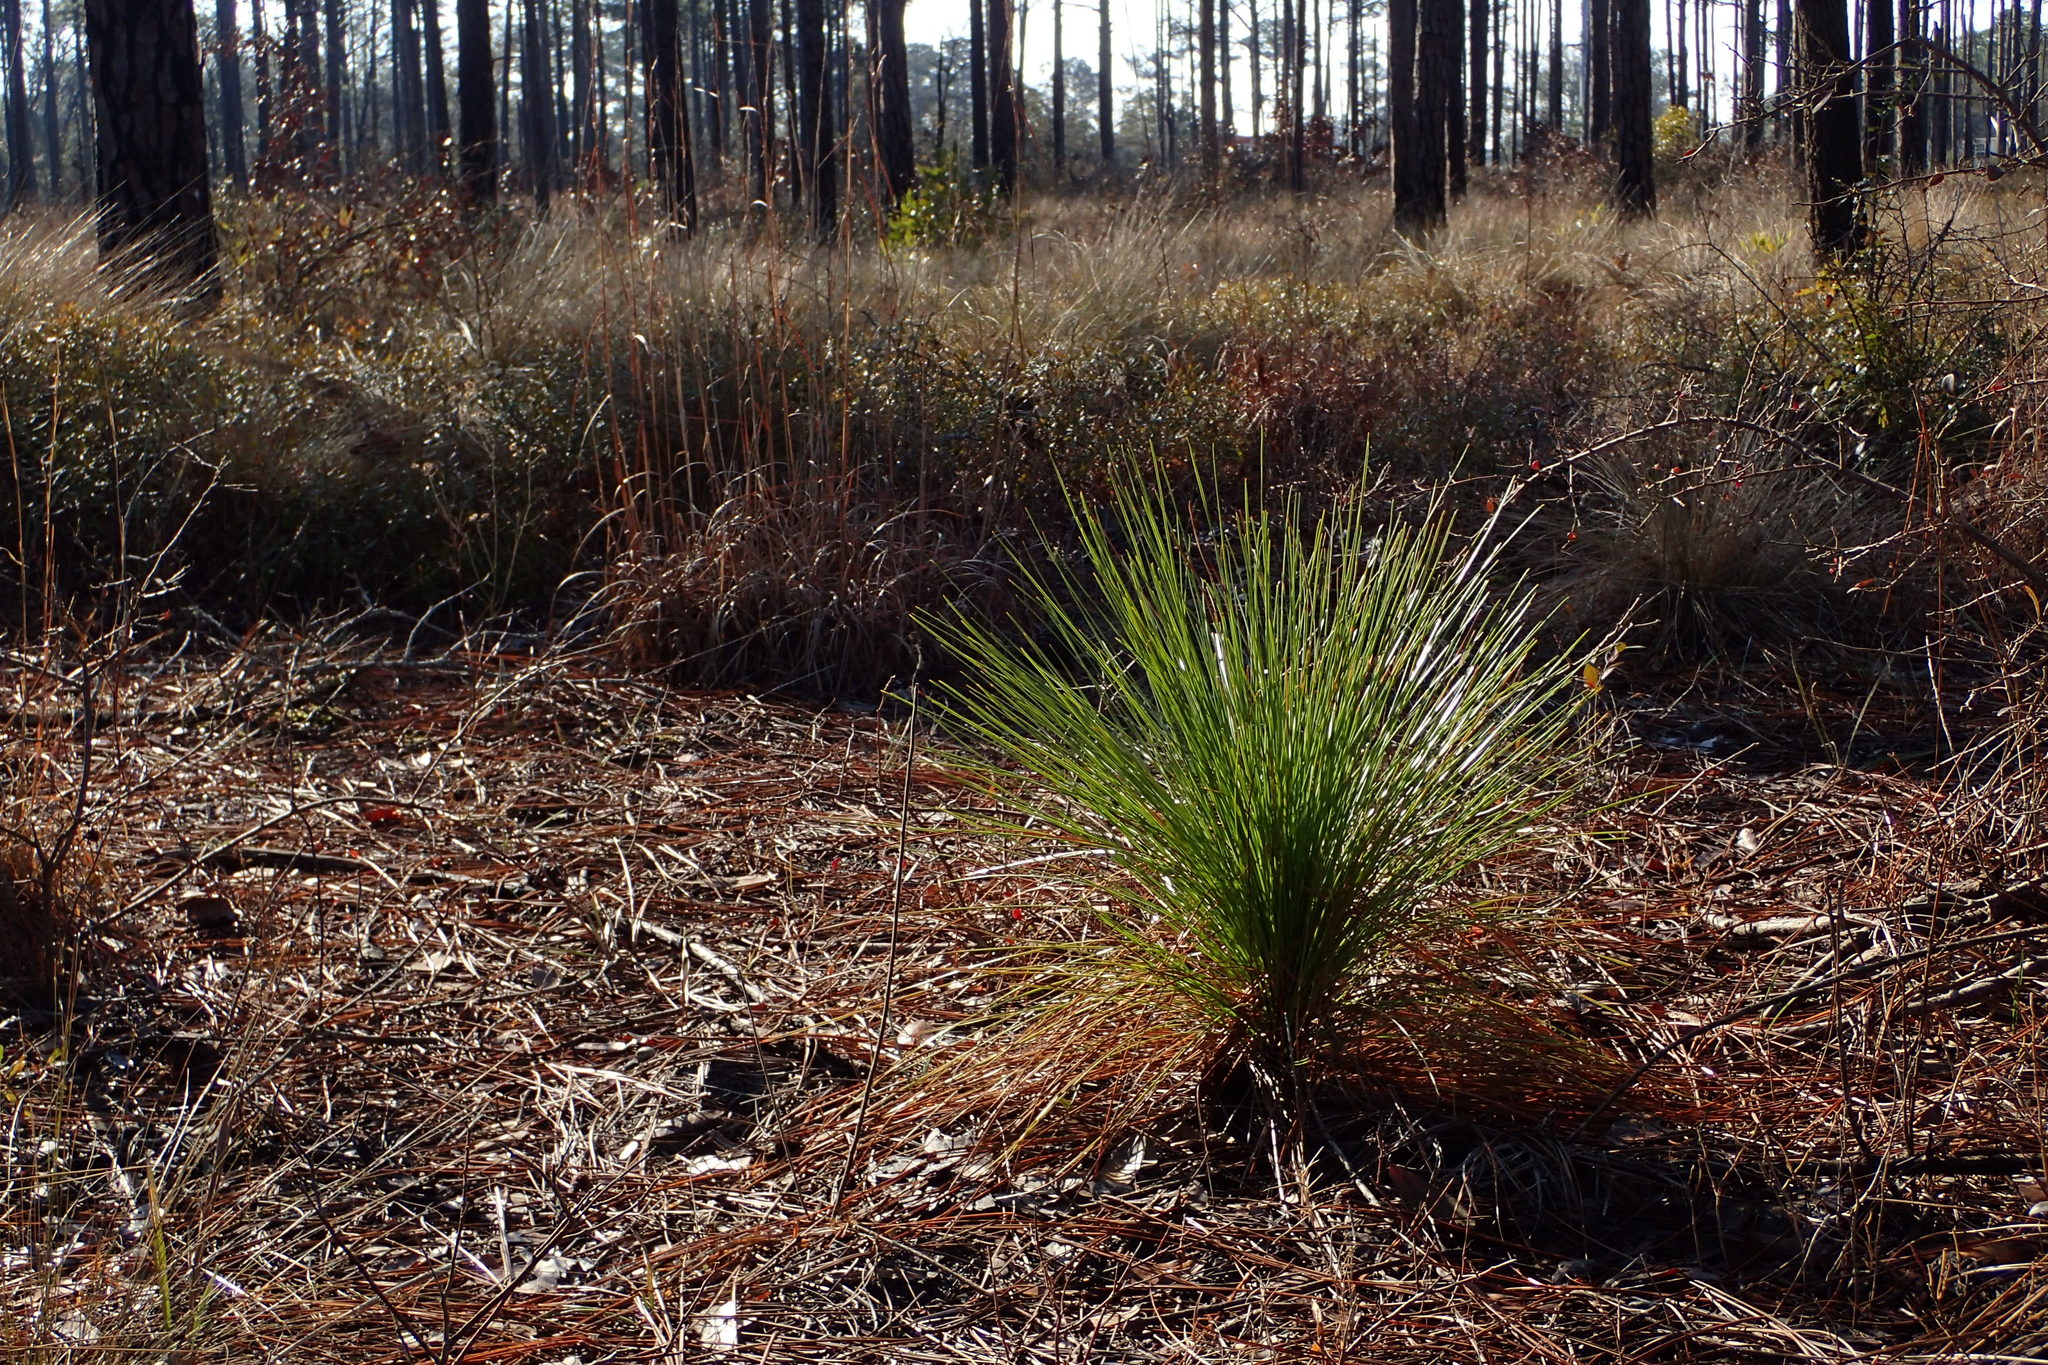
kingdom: Plantae
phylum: Tracheophyta
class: Pinopsida
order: Pinales
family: Pinaceae
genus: Pinus
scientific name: Pinus palustris
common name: Longleaf pine
